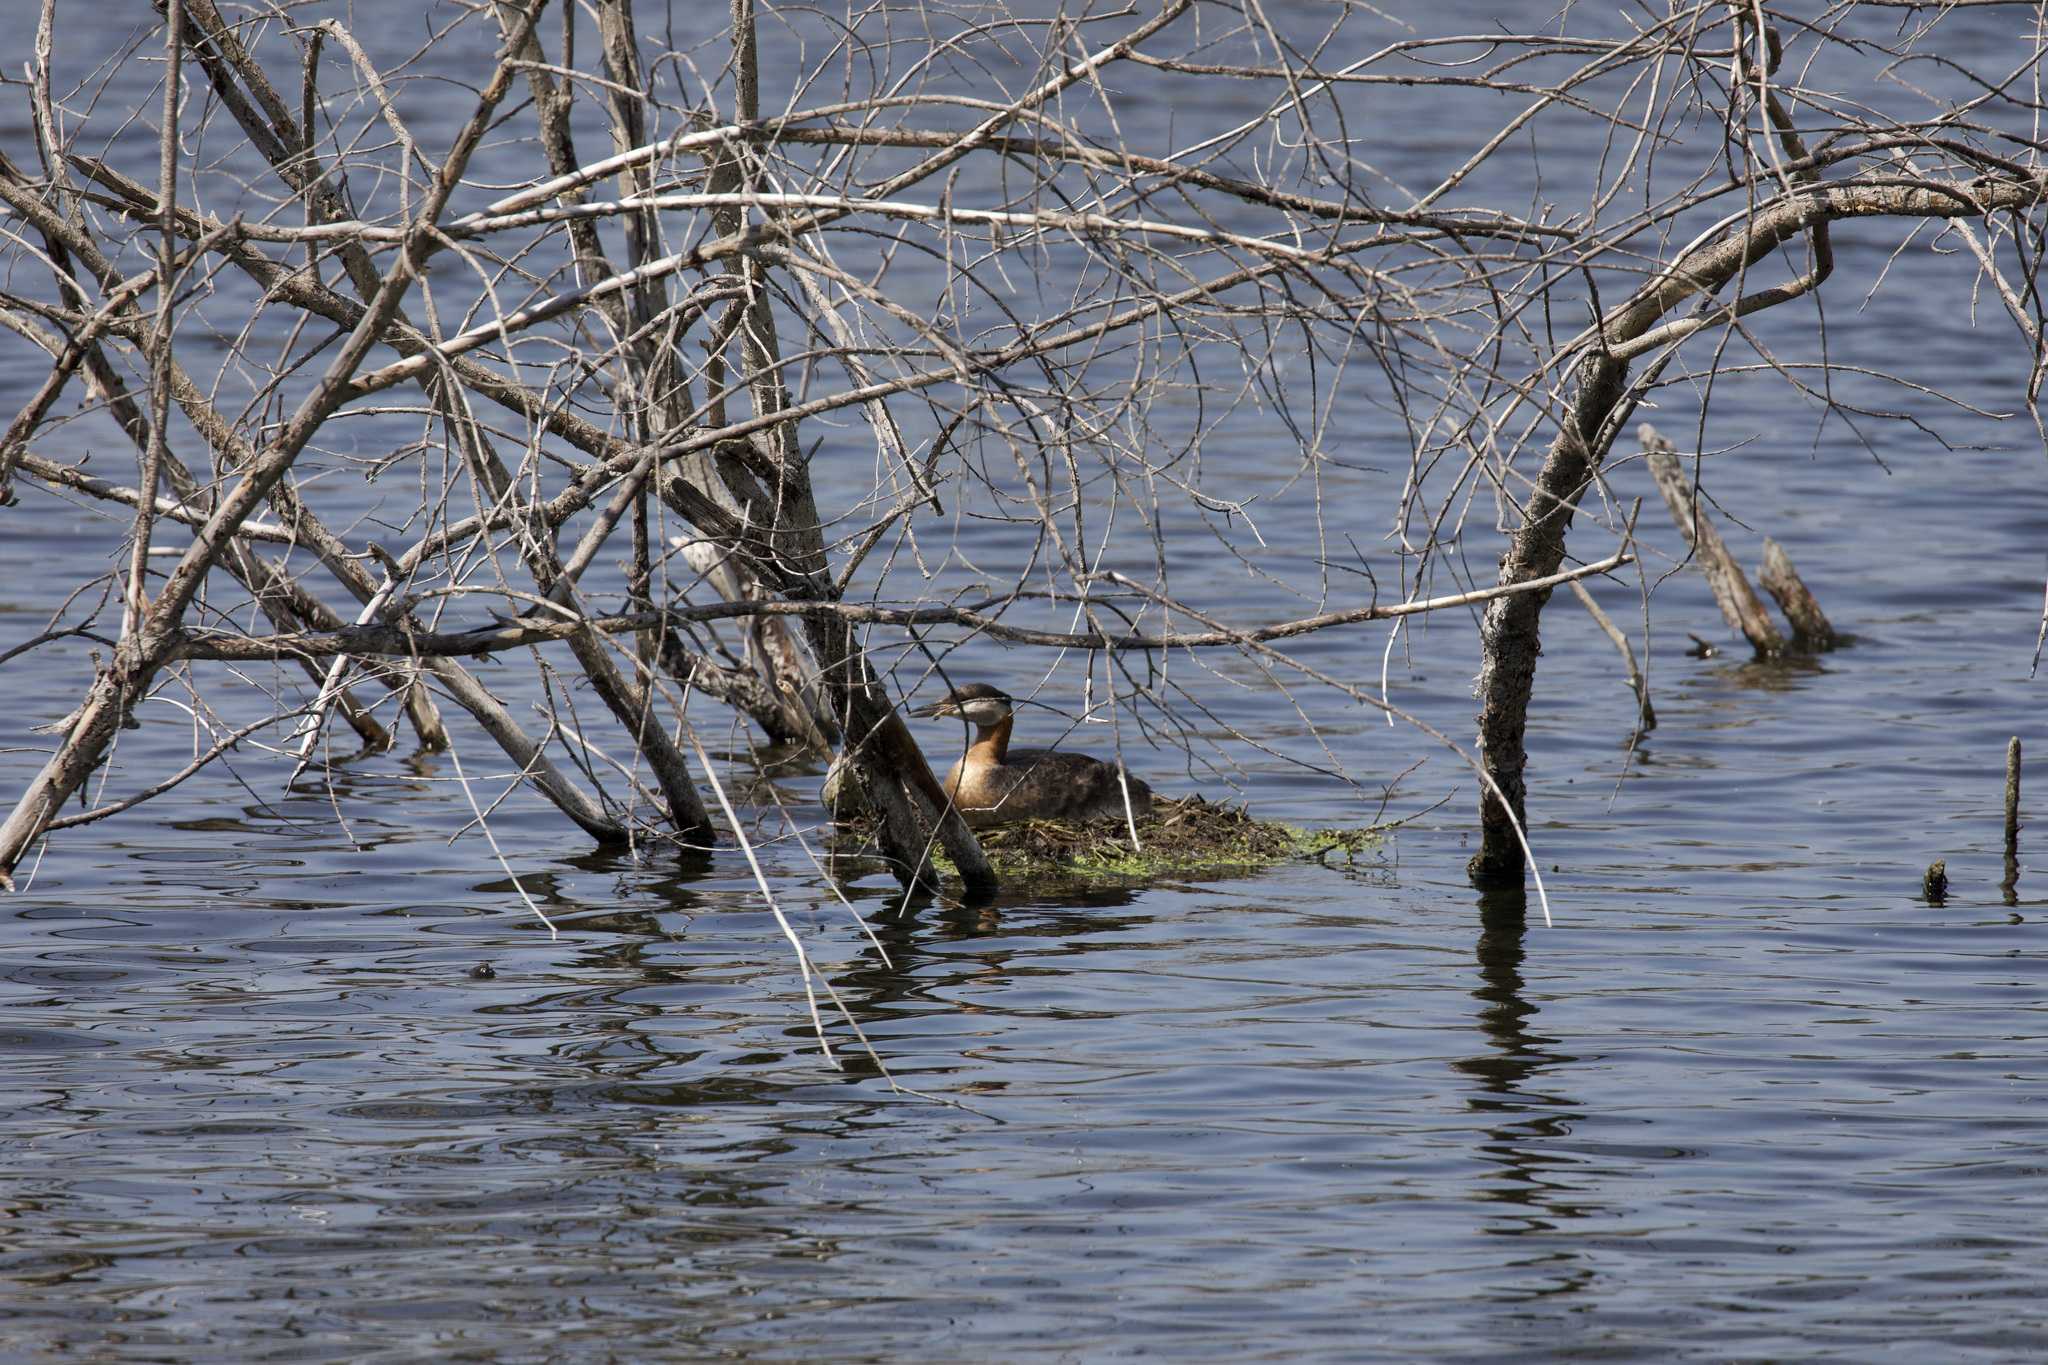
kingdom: Animalia
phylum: Chordata
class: Aves
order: Podicipediformes
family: Podicipedidae
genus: Podiceps
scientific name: Podiceps grisegena
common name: Red-necked grebe
